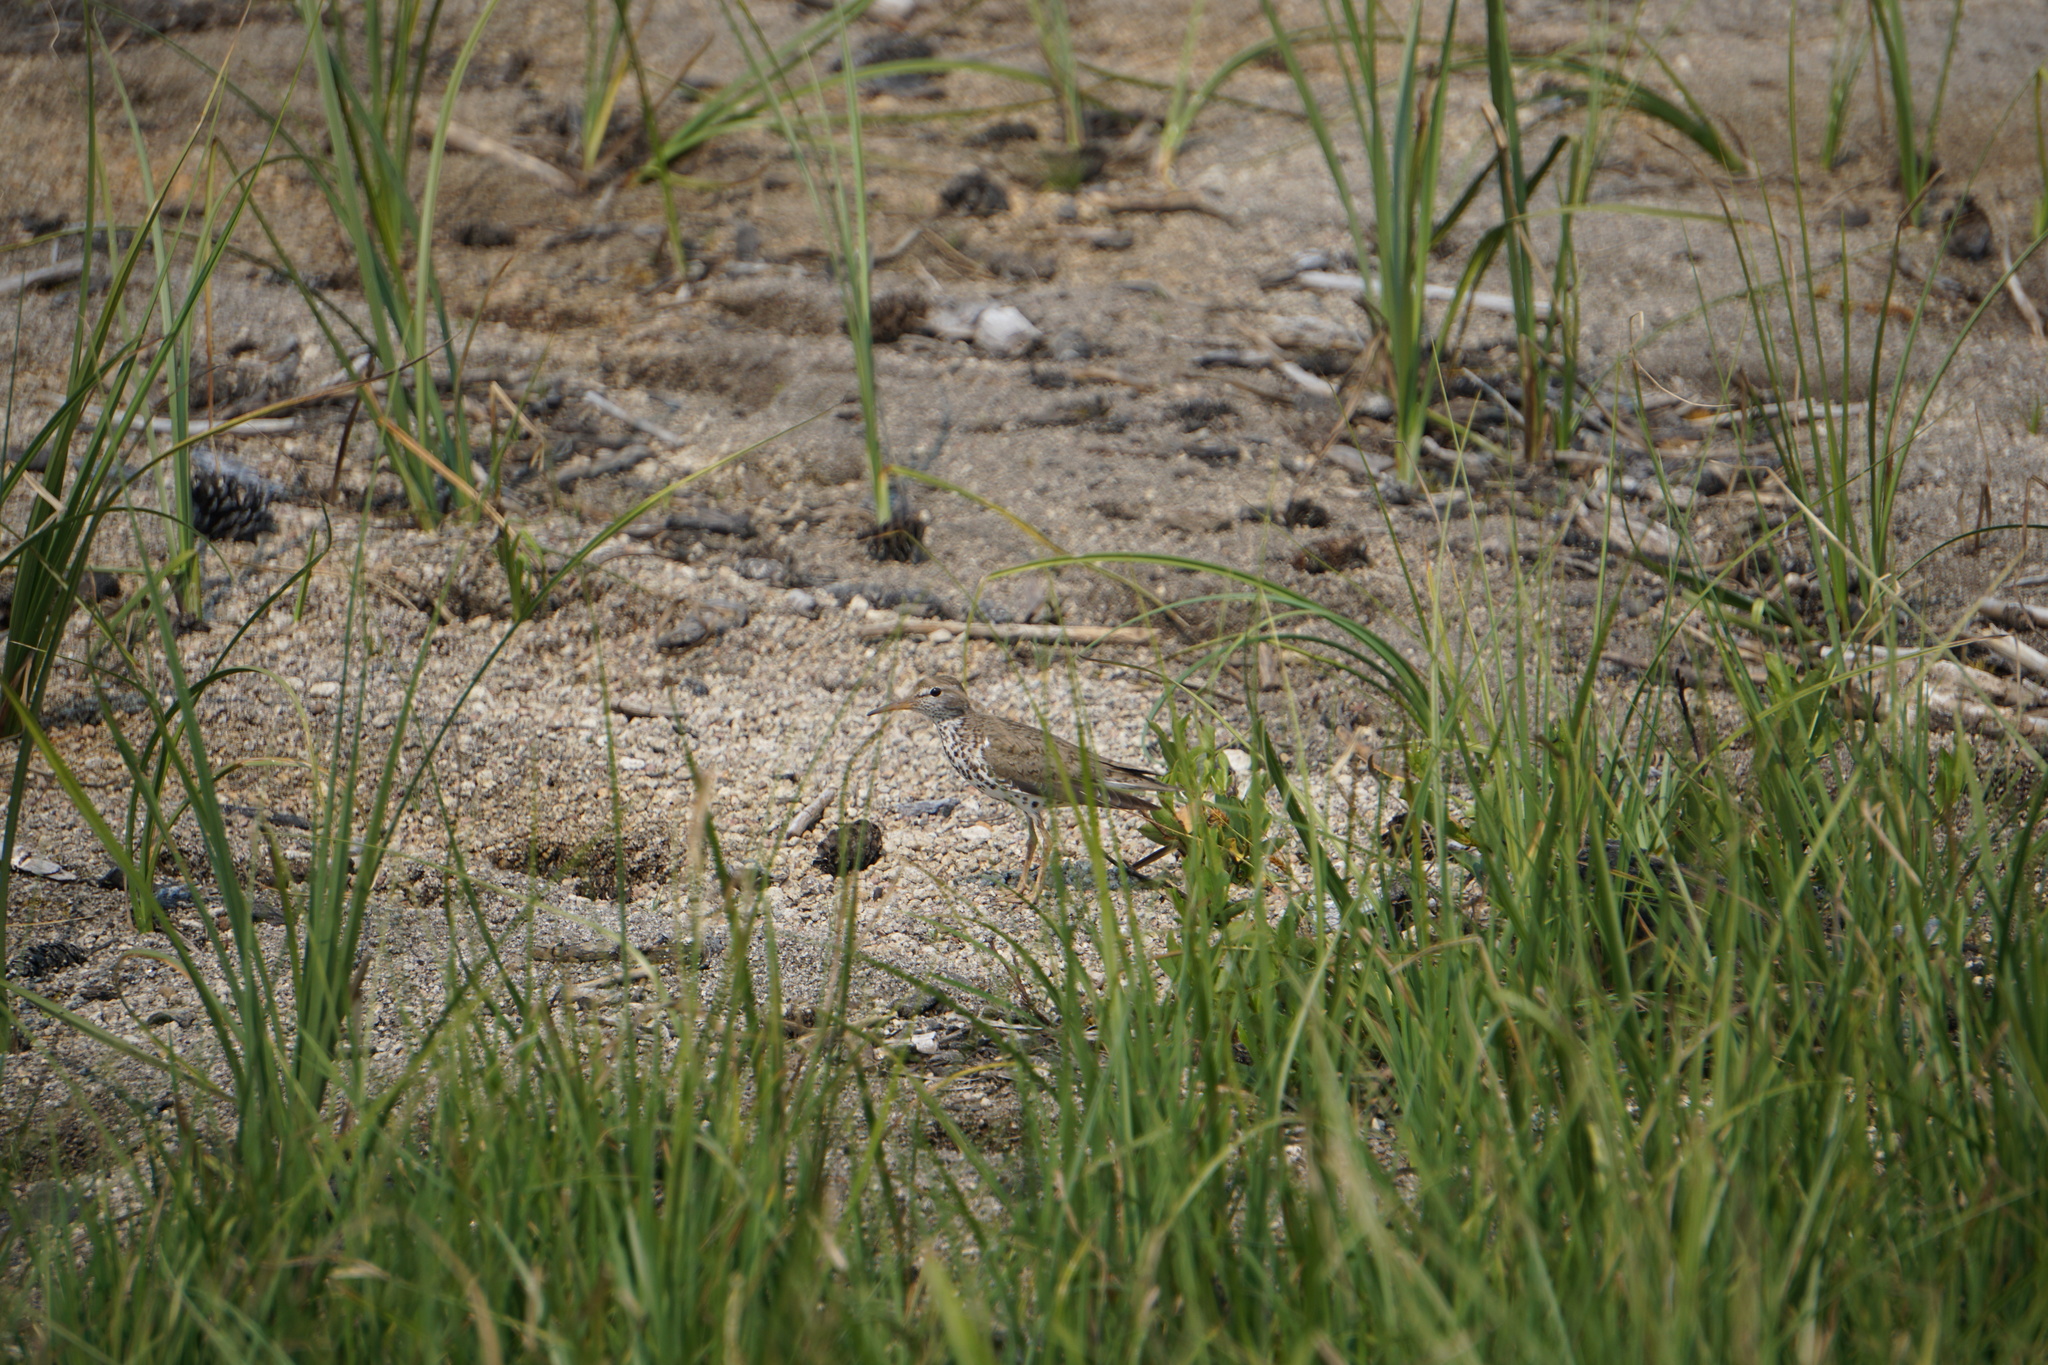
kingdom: Animalia
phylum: Chordata
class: Aves
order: Charadriiformes
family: Scolopacidae
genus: Actitis
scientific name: Actitis macularius
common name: Spotted sandpiper
